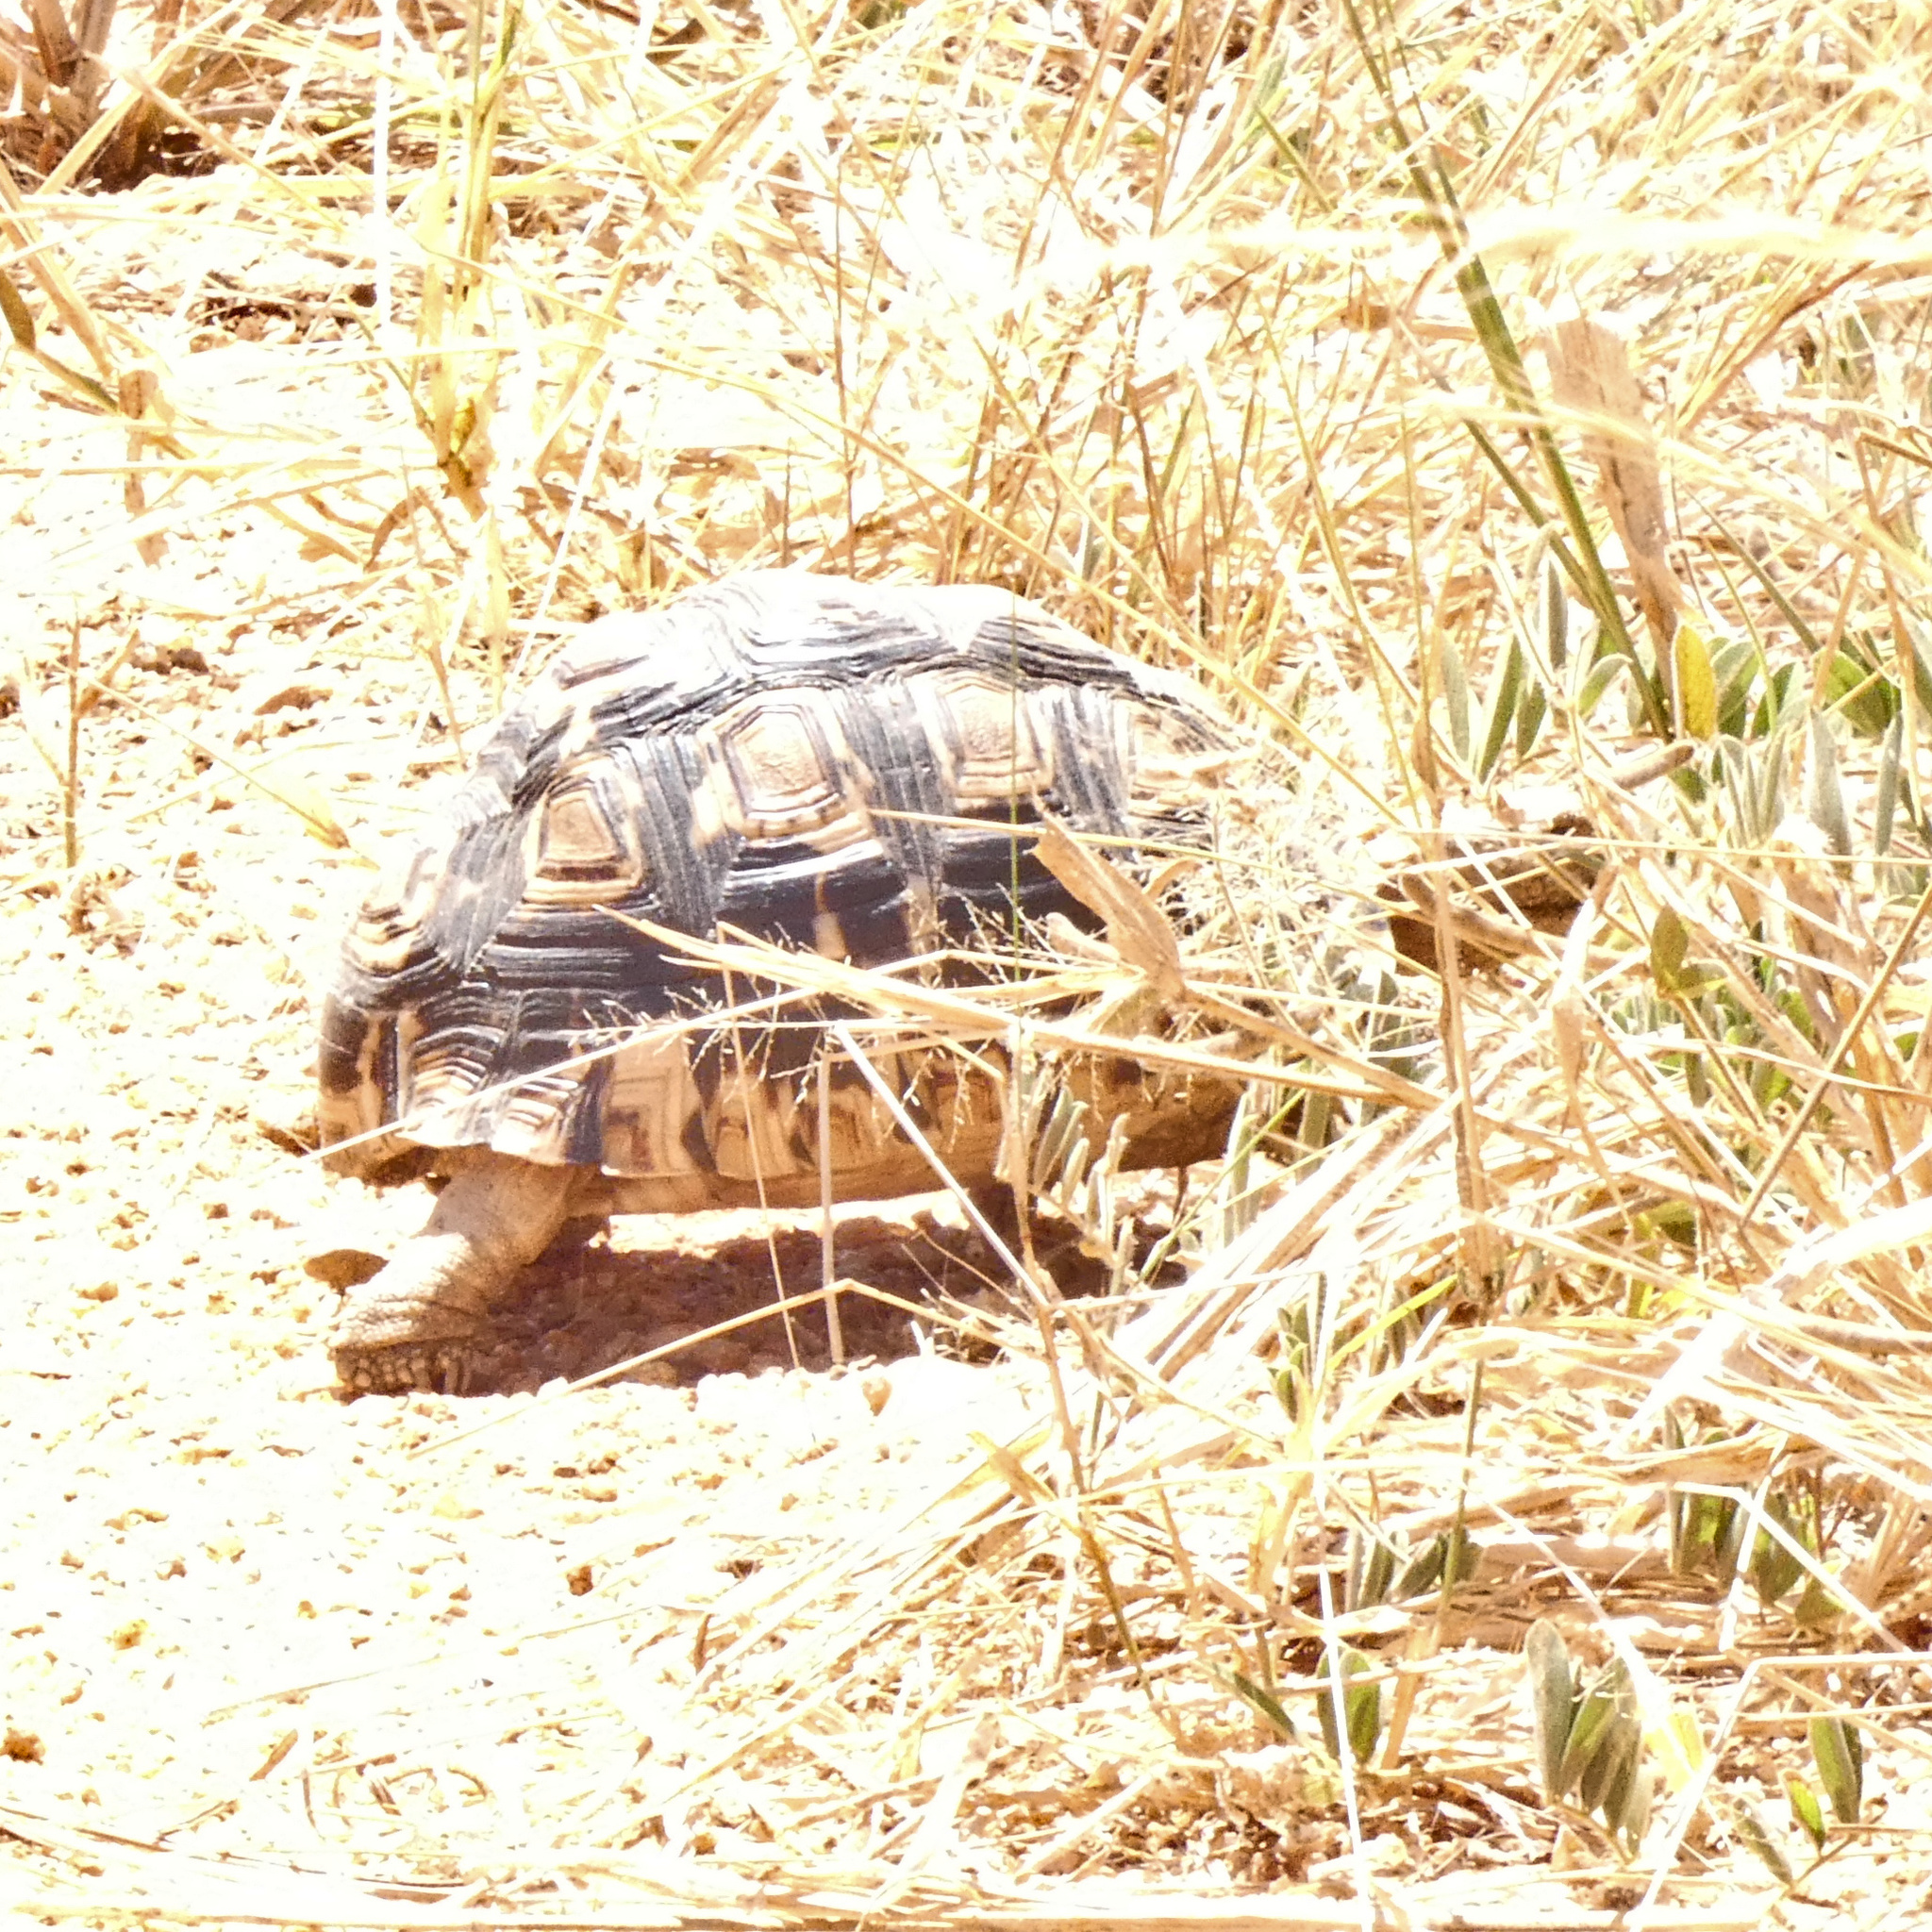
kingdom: Animalia
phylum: Chordata
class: Testudines
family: Testudinidae
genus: Stigmochelys
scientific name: Stigmochelys pardalis
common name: Leopard tortoise
